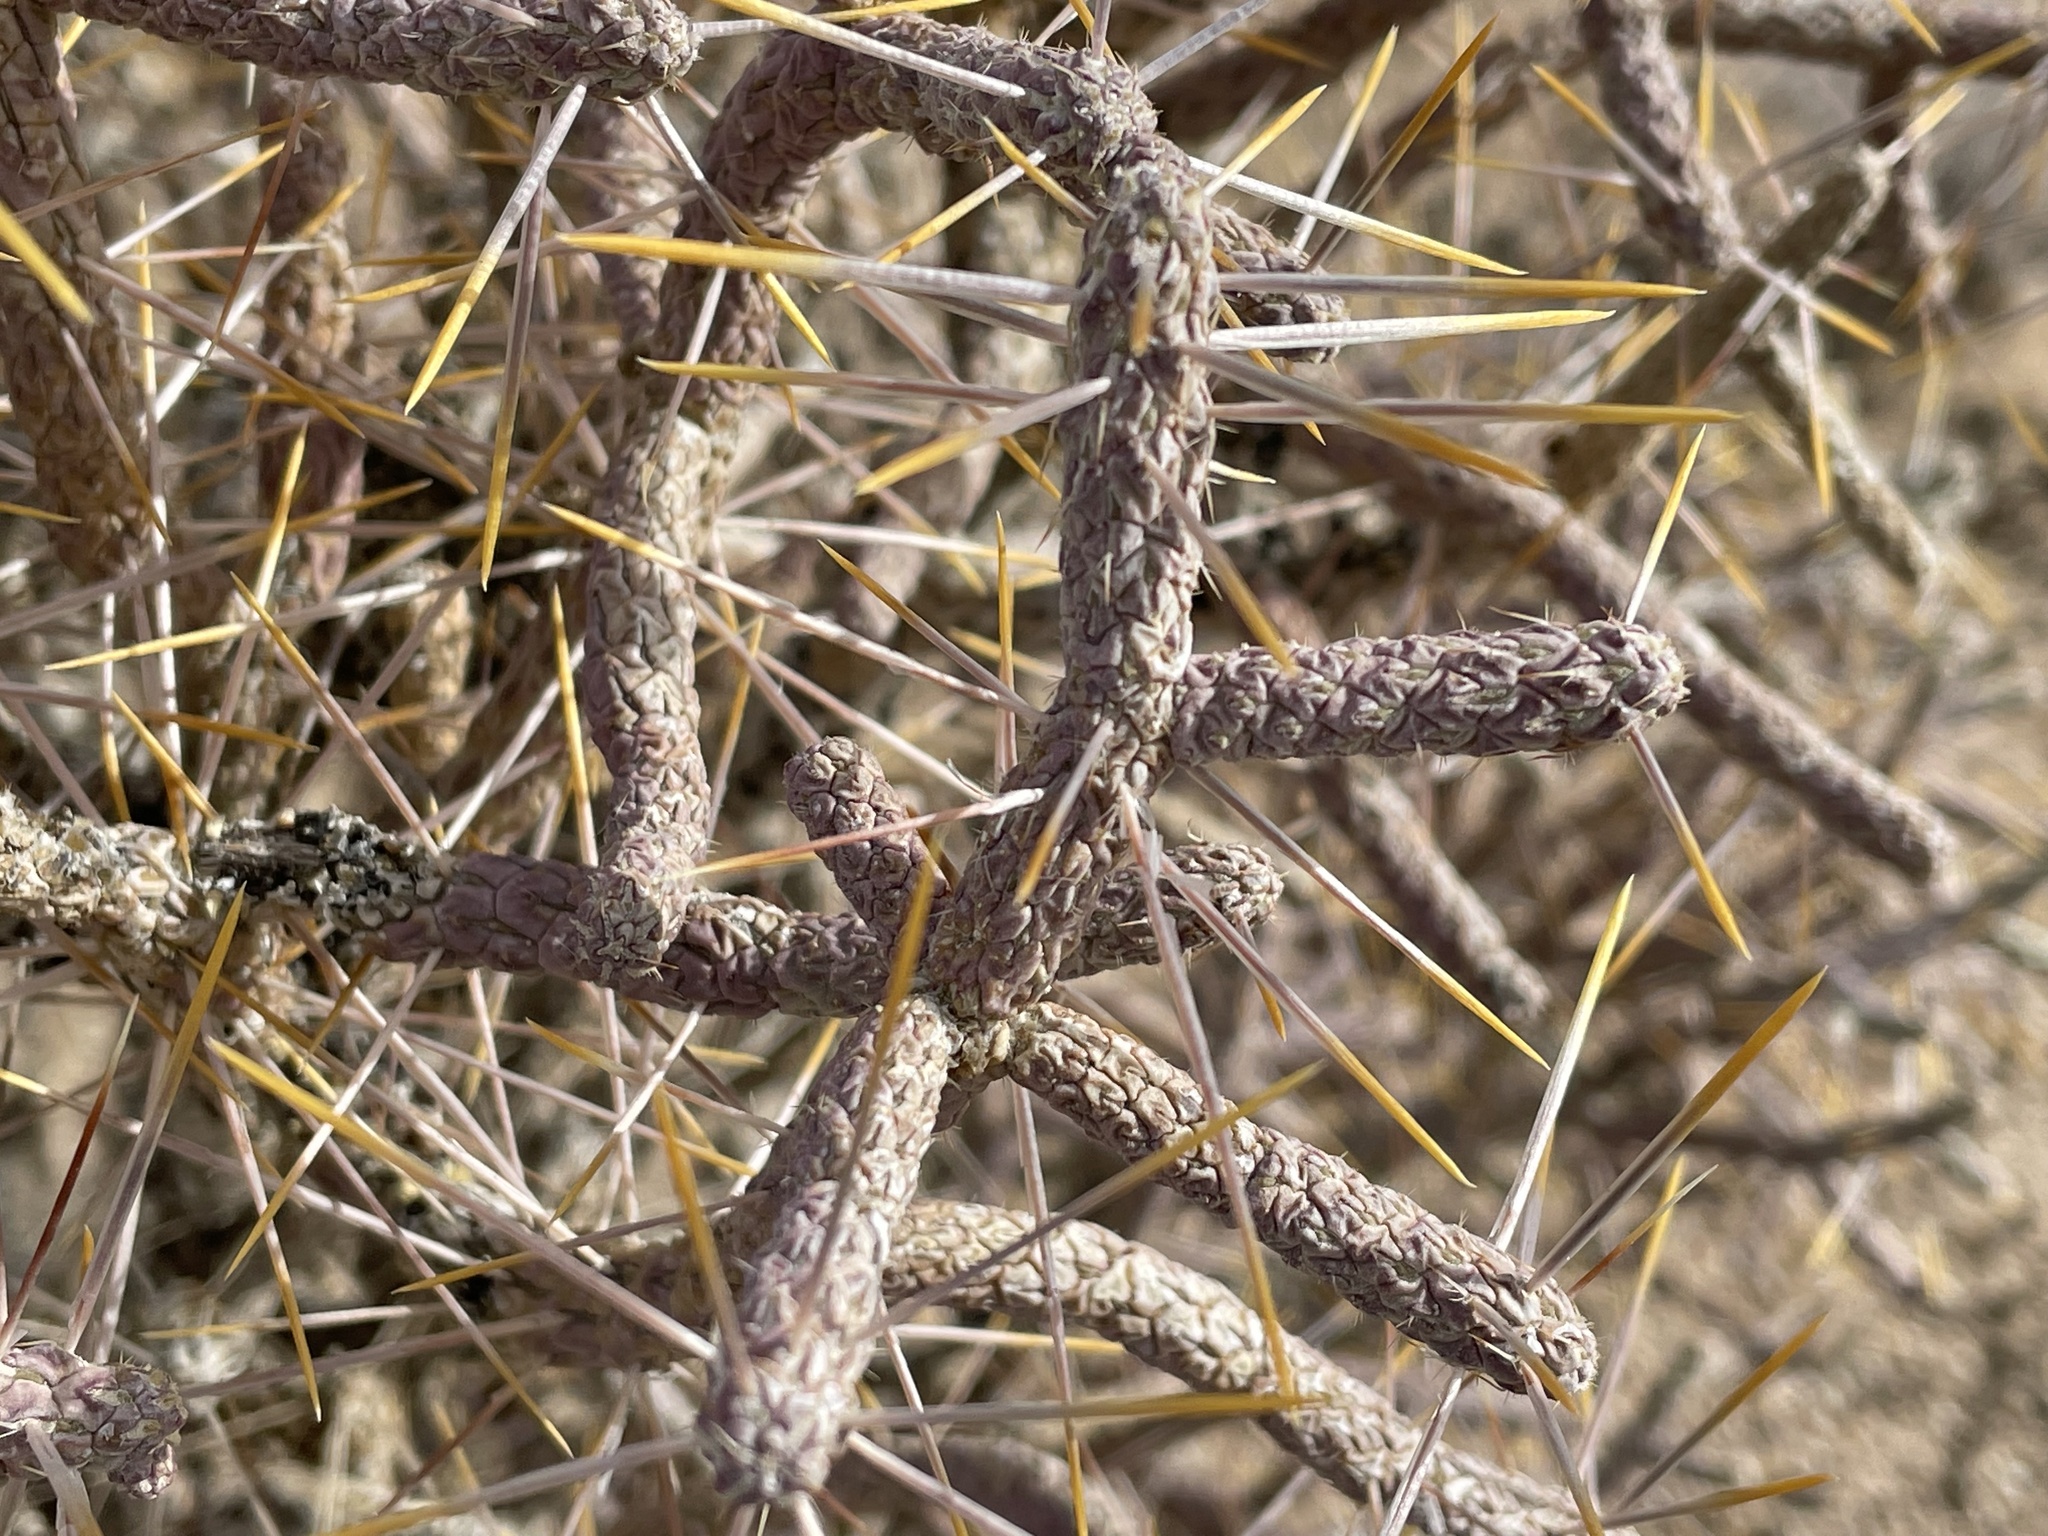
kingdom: Plantae
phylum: Tracheophyta
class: Magnoliopsida
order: Caryophyllales
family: Cactaceae
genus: Cylindropuntia
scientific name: Cylindropuntia ramosissima
